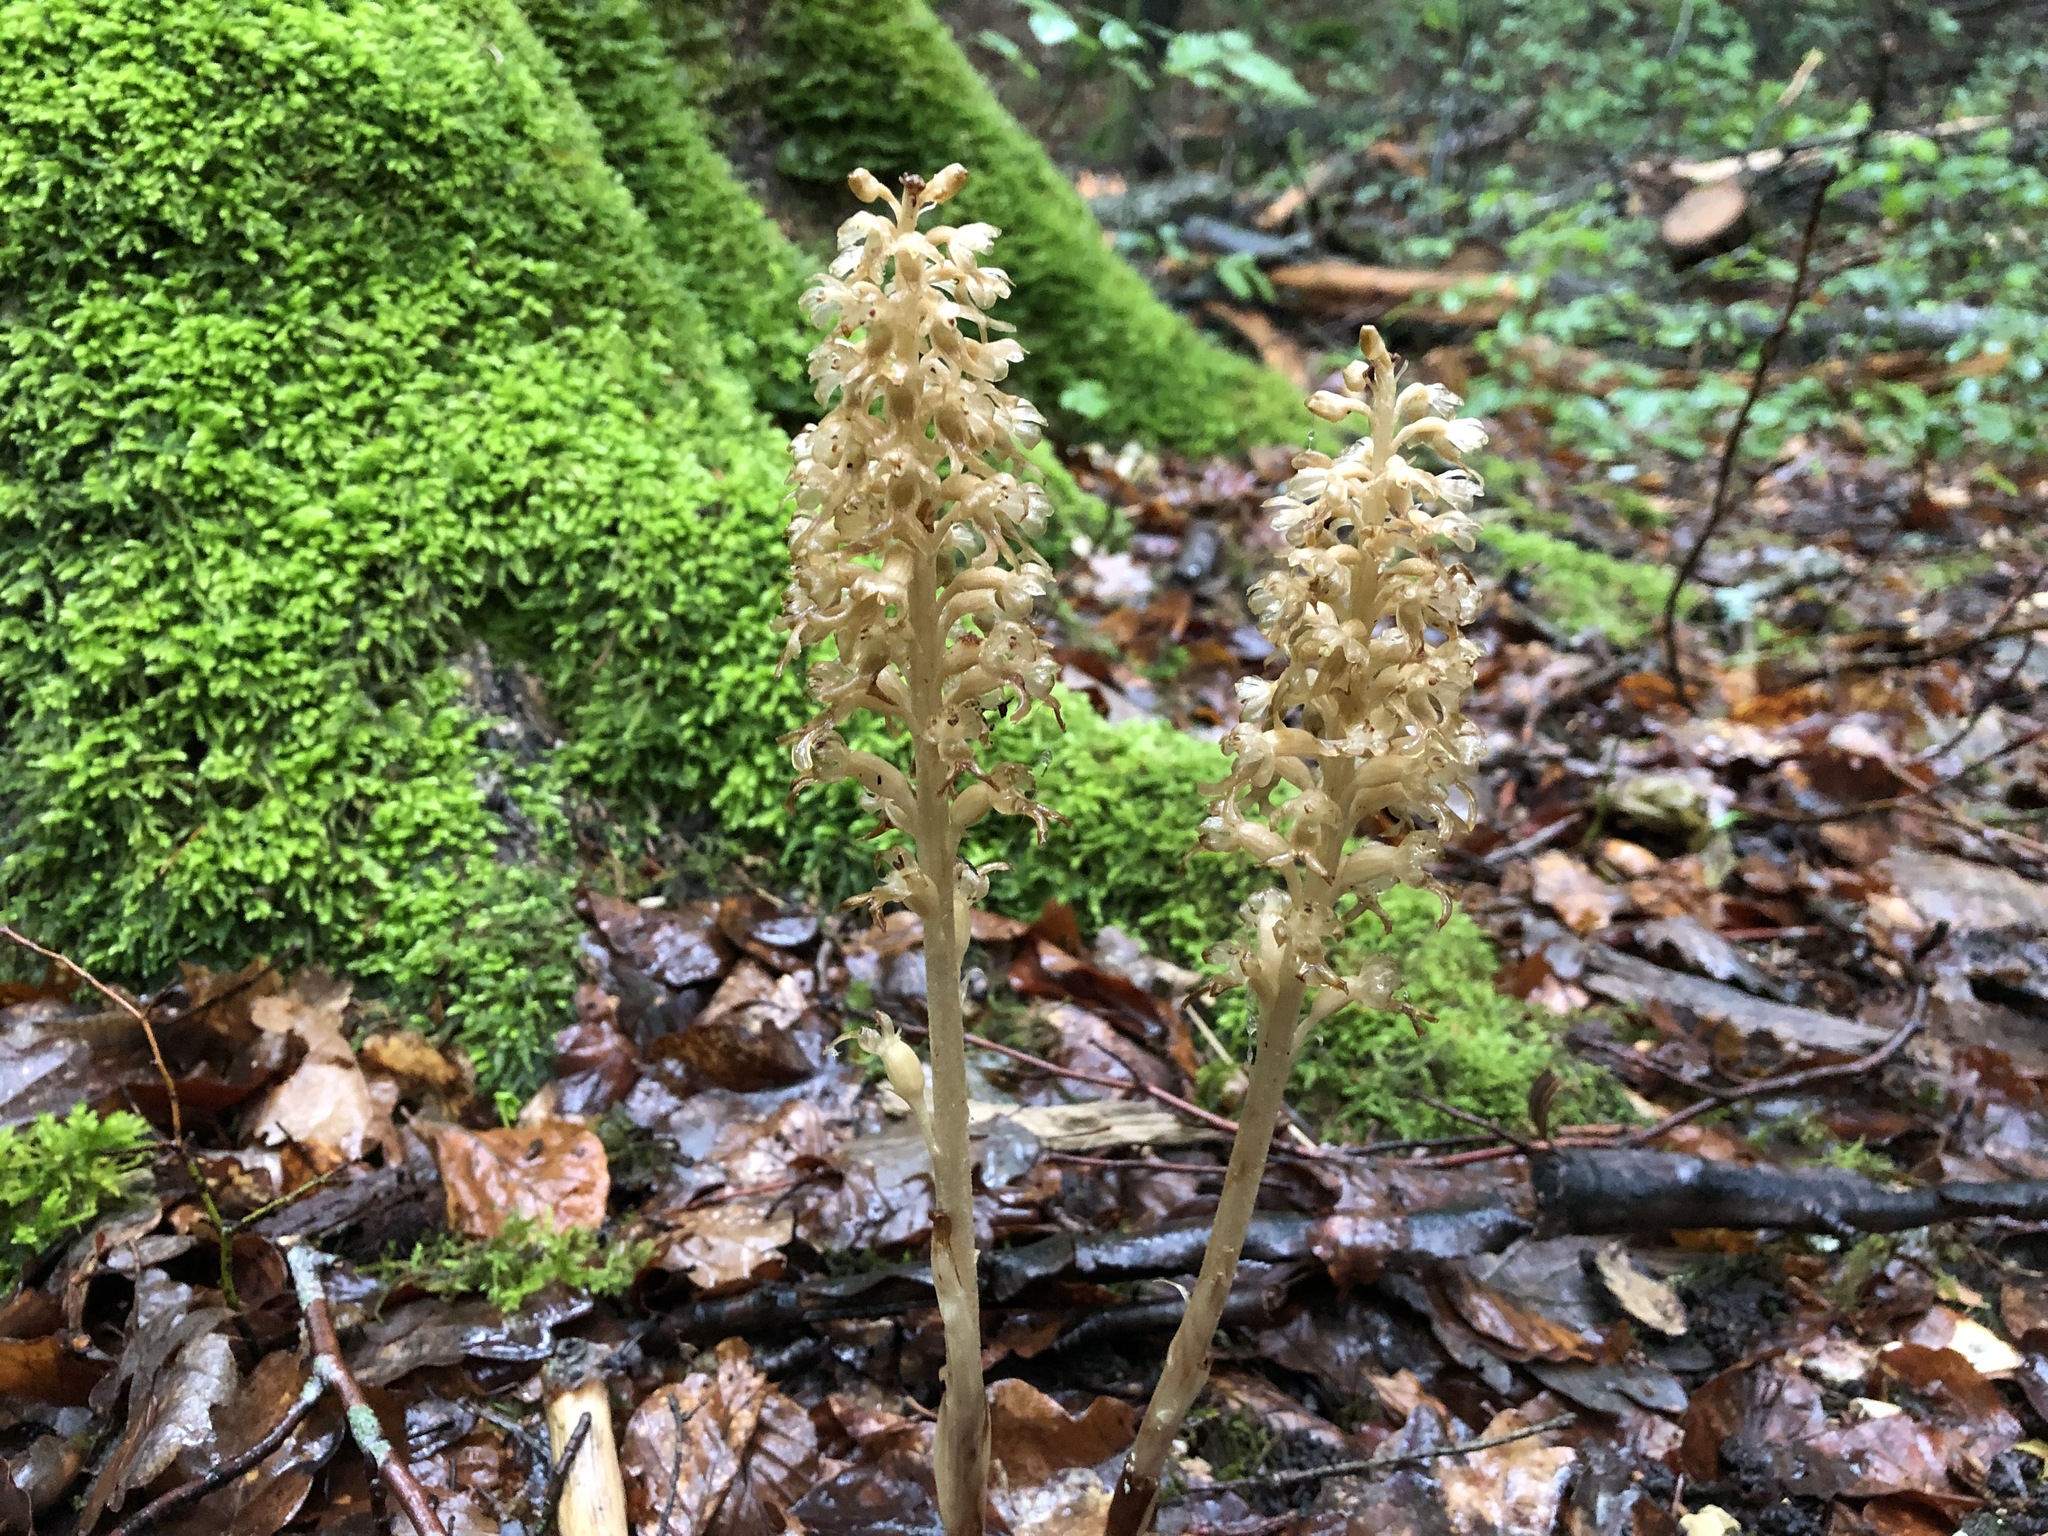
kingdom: Plantae
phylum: Tracheophyta
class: Liliopsida
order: Asparagales
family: Orchidaceae
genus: Neottia
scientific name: Neottia nidus-avis
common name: Bird's-nest orchid
